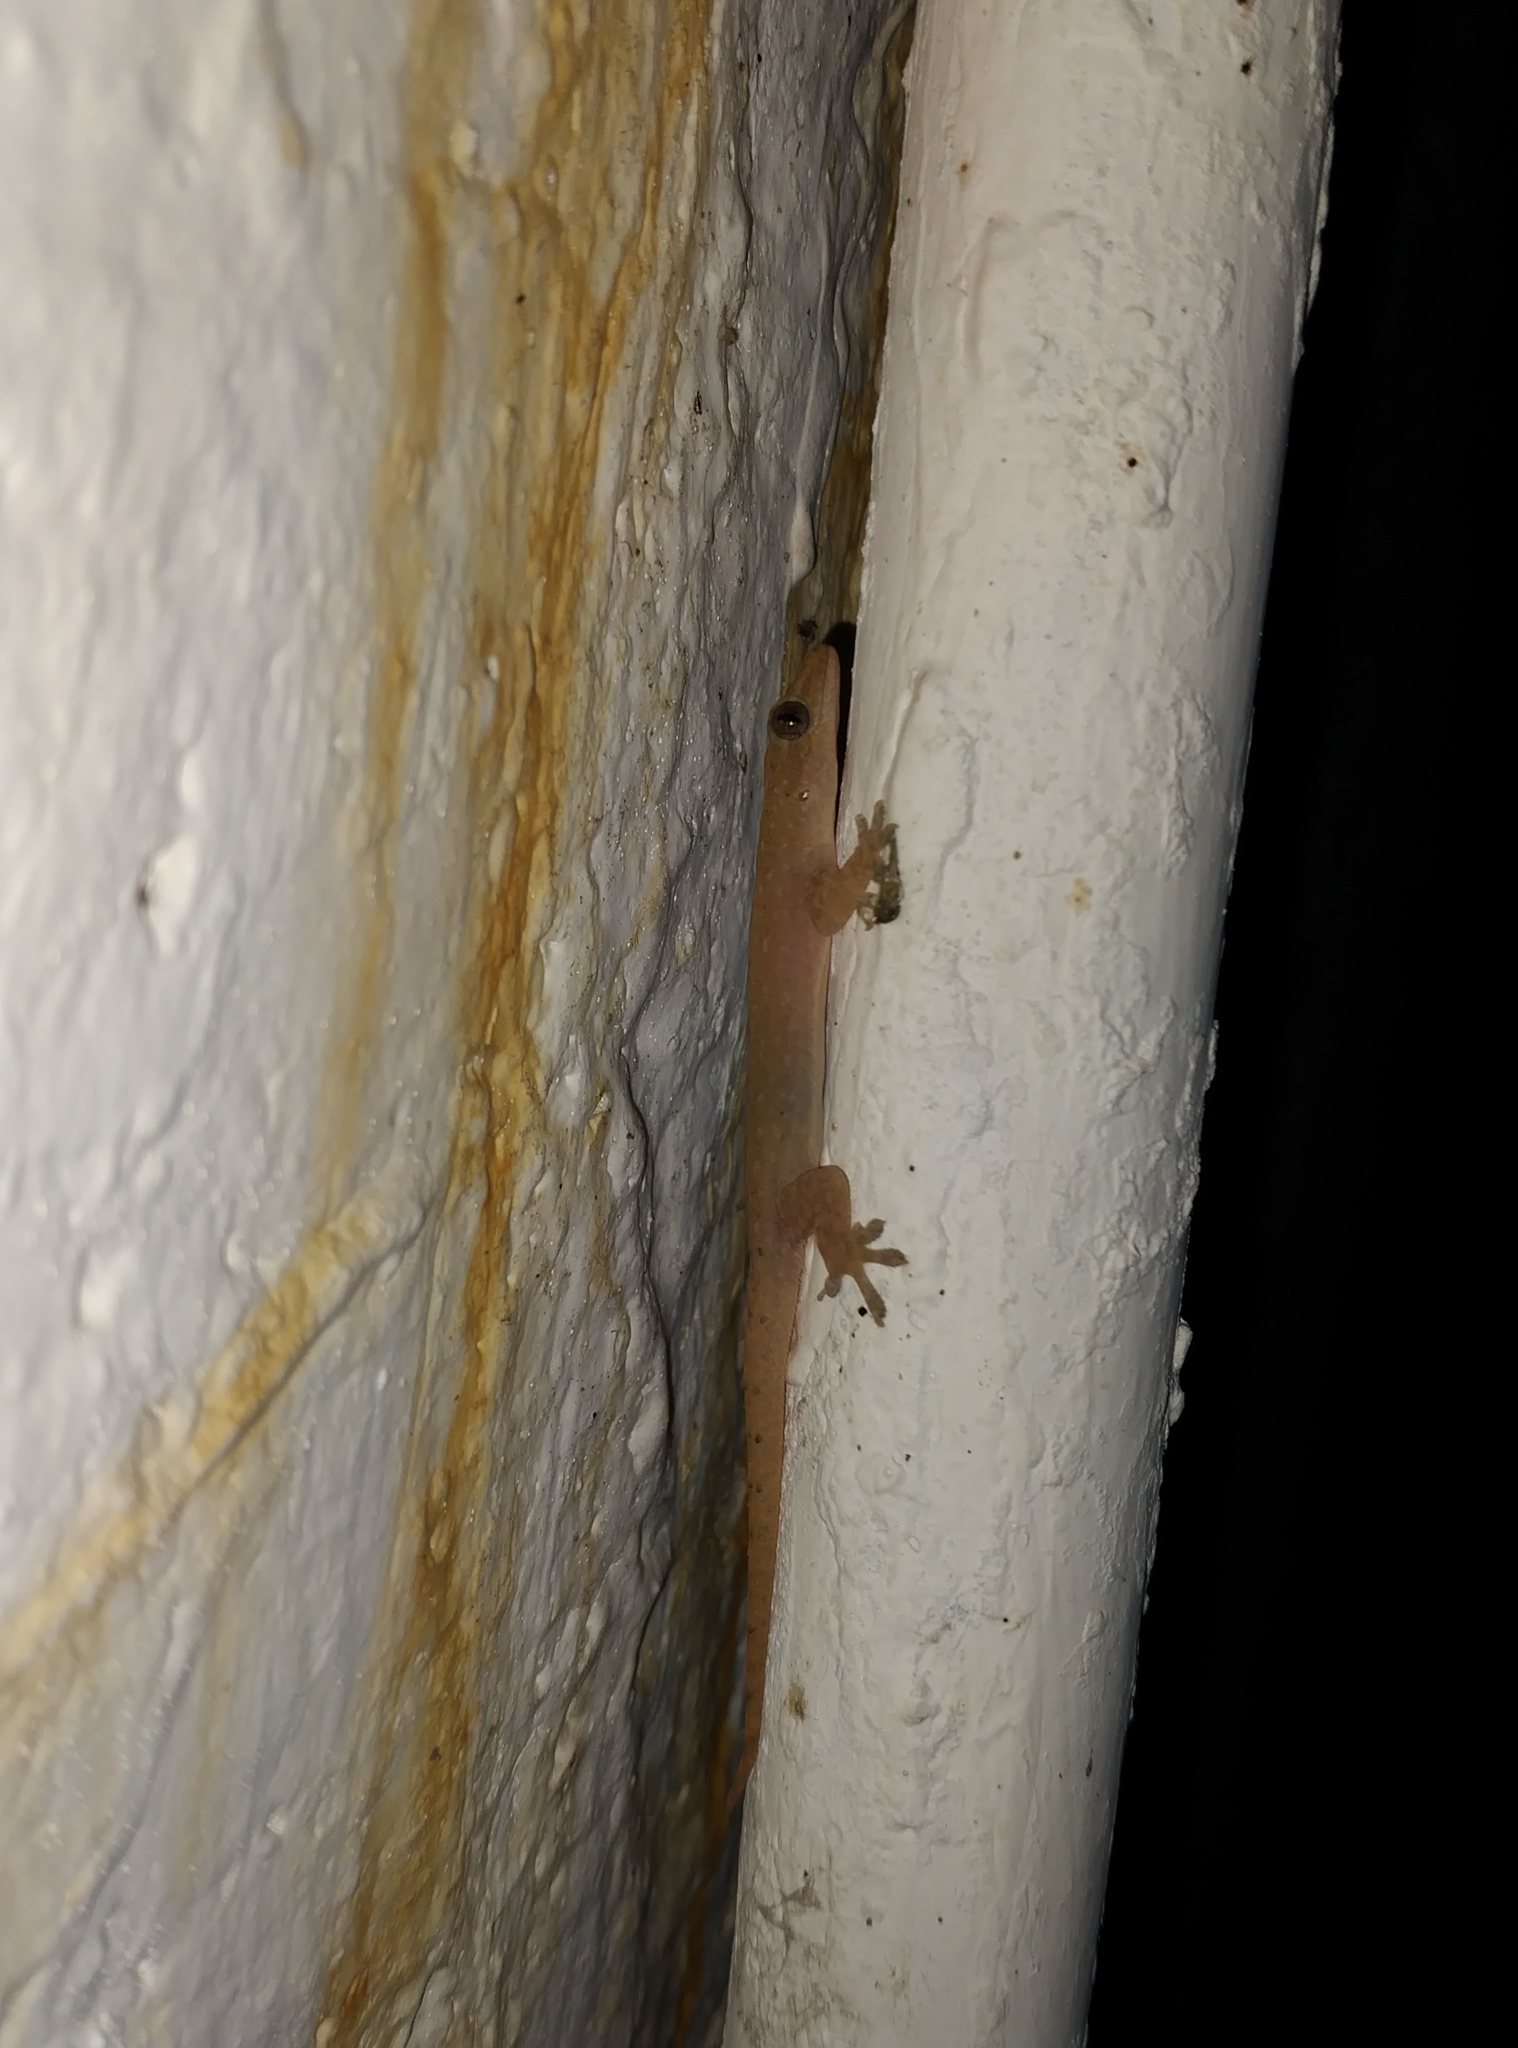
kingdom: Animalia
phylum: Chordata
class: Squamata
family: Gekkonidae
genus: Hemidactylus
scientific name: Hemidactylus frenatus
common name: Common house gecko
